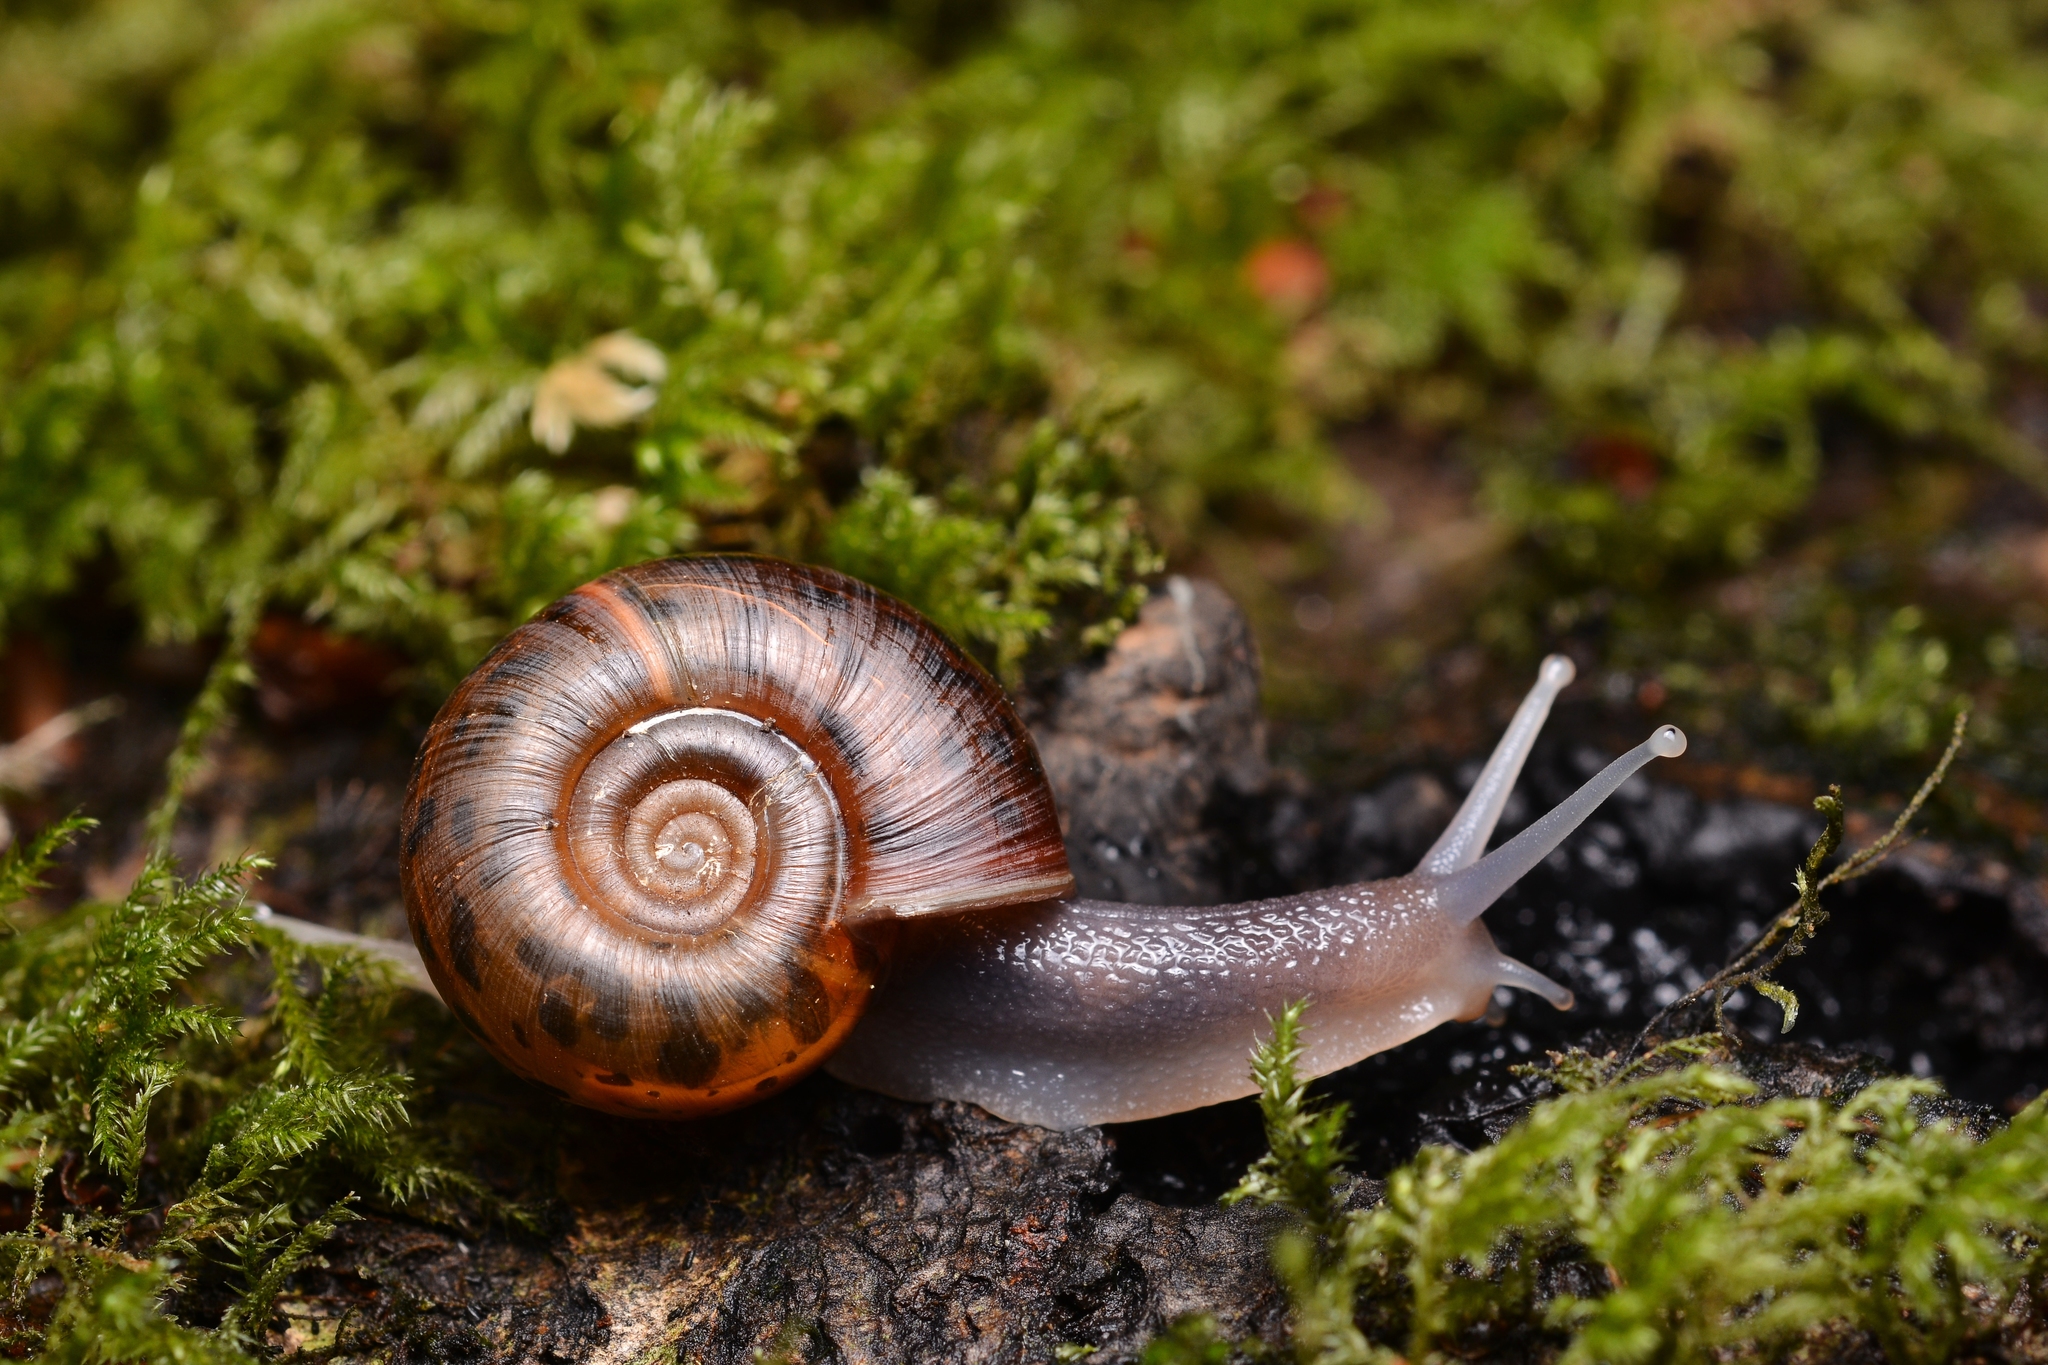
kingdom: Animalia
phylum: Mollusca
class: Gastropoda
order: Stylommatophora
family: Elonidae
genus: Elona
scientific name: Elona quimperiana
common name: Quimper snail
